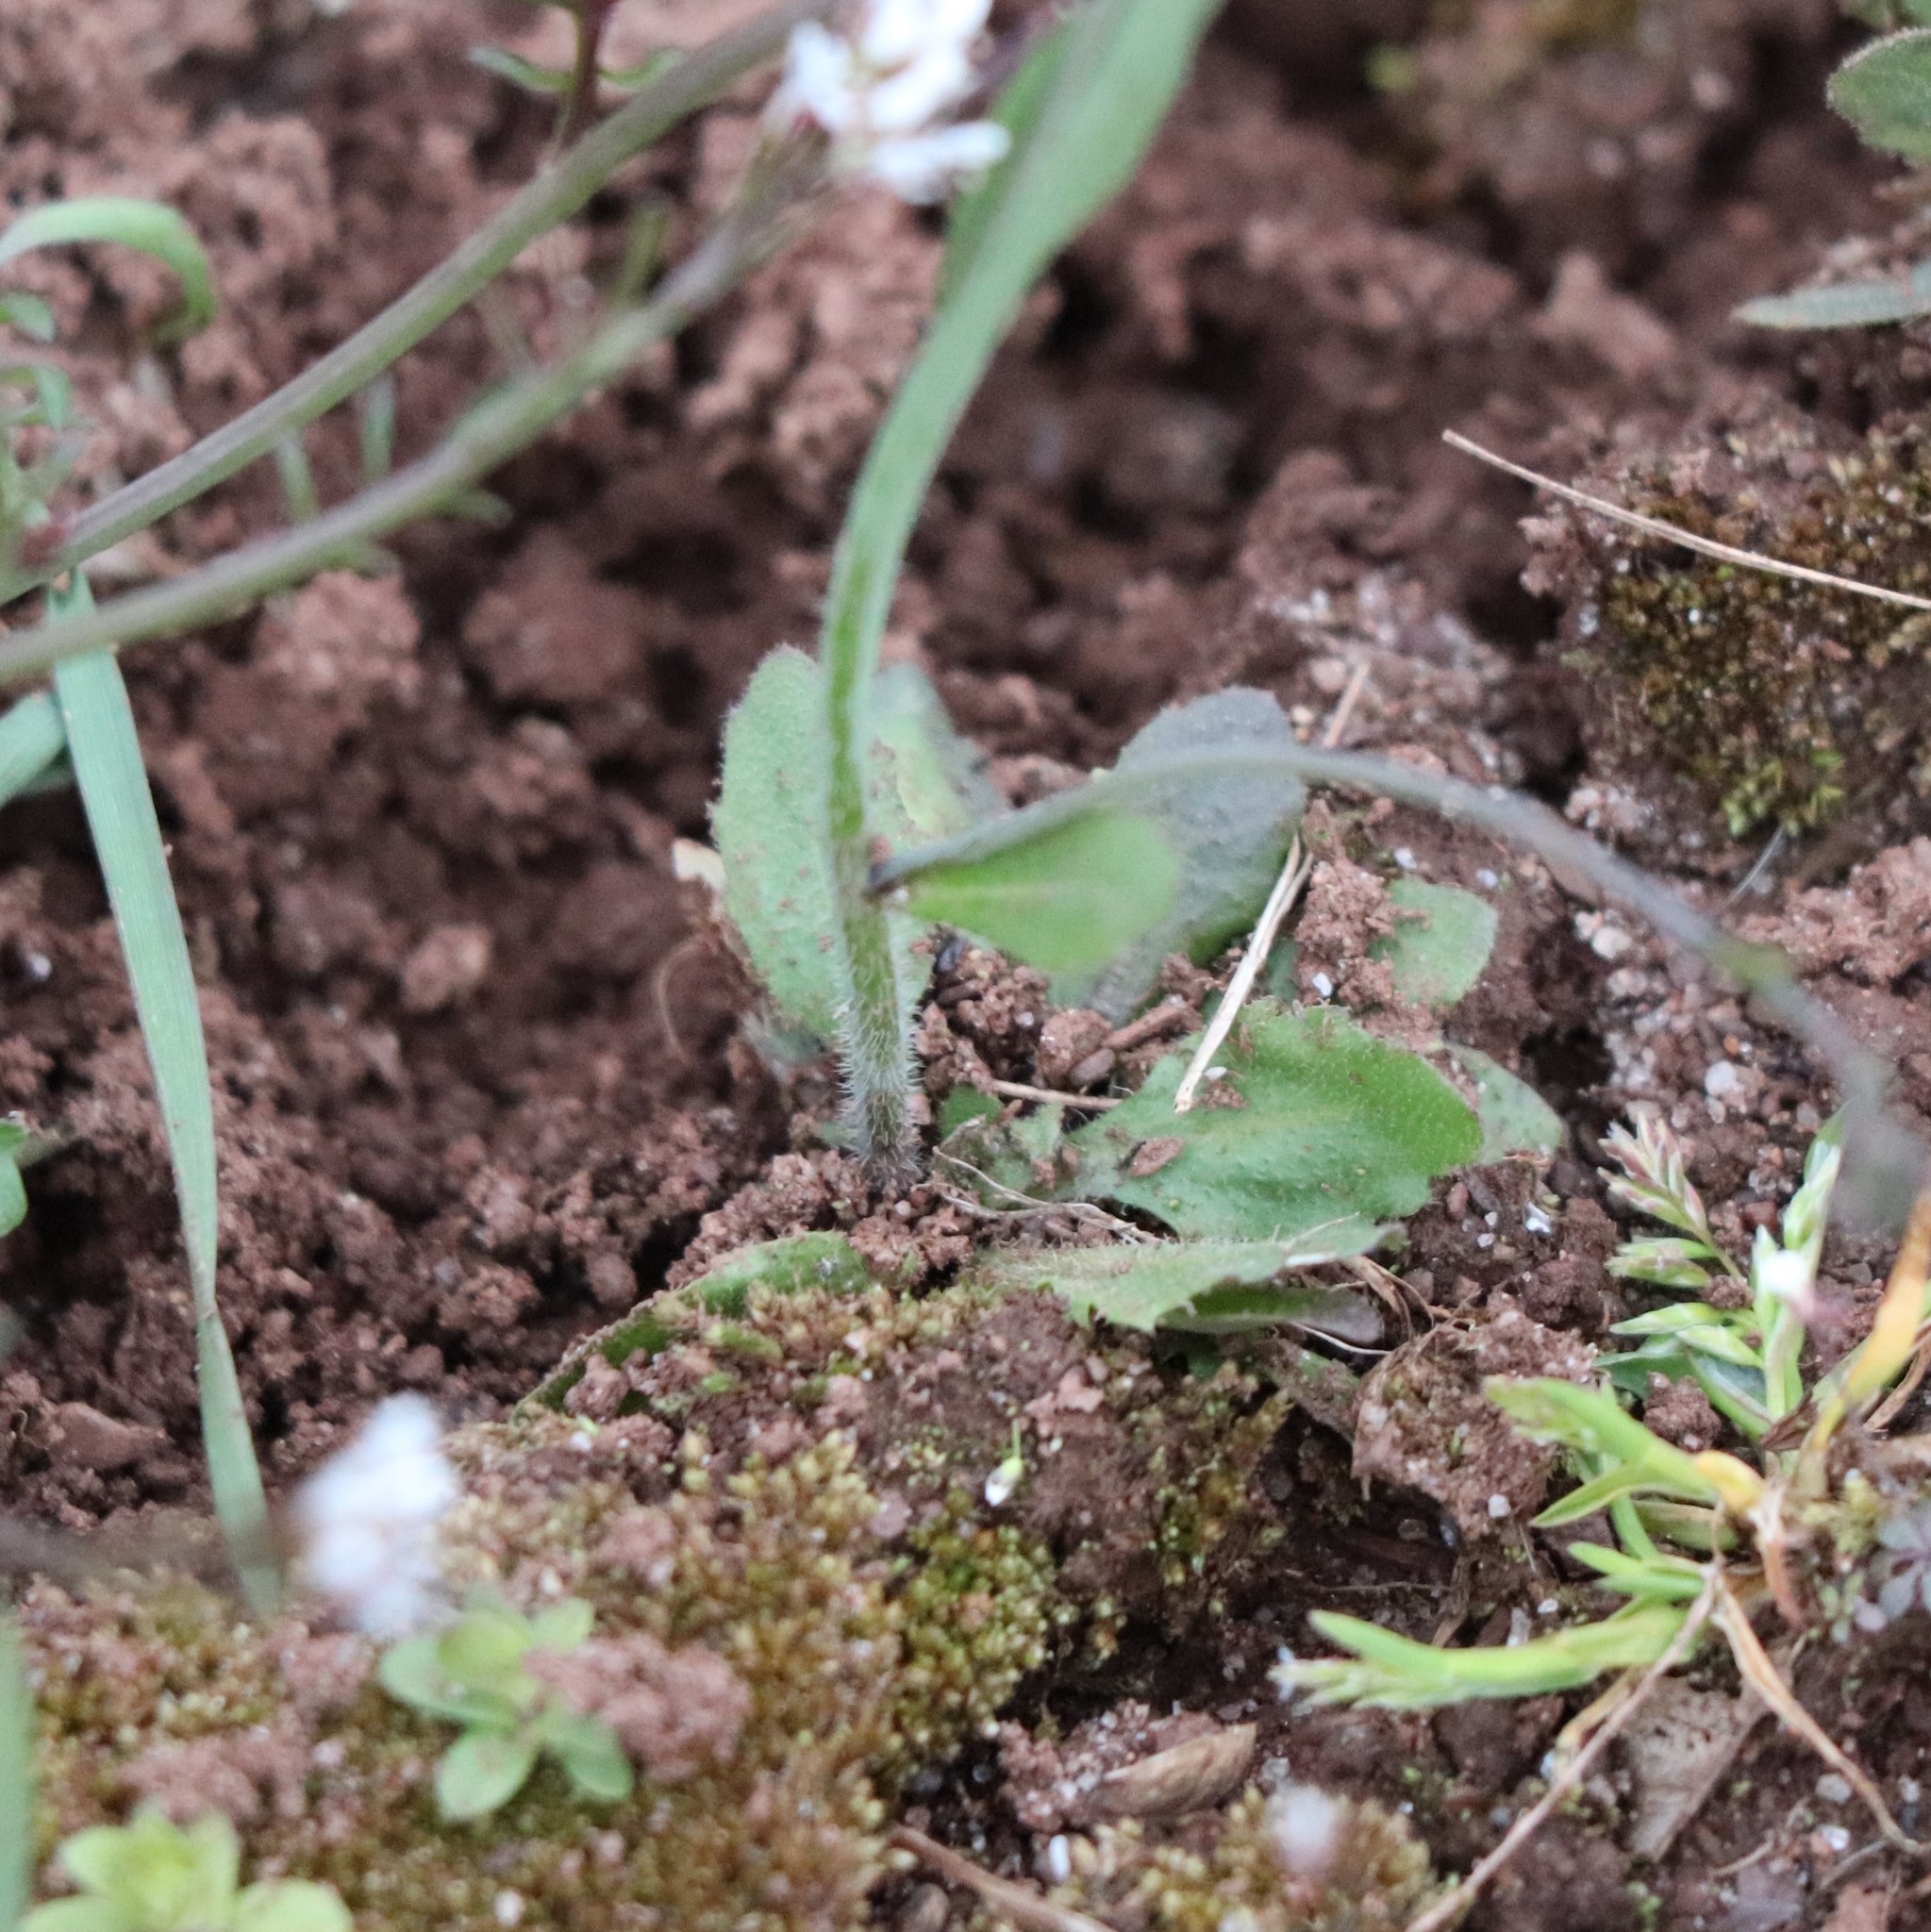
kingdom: Plantae
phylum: Tracheophyta
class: Magnoliopsida
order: Brassicales
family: Brassicaceae
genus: Arabidopsis
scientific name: Arabidopsis thaliana
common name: Thale cress
